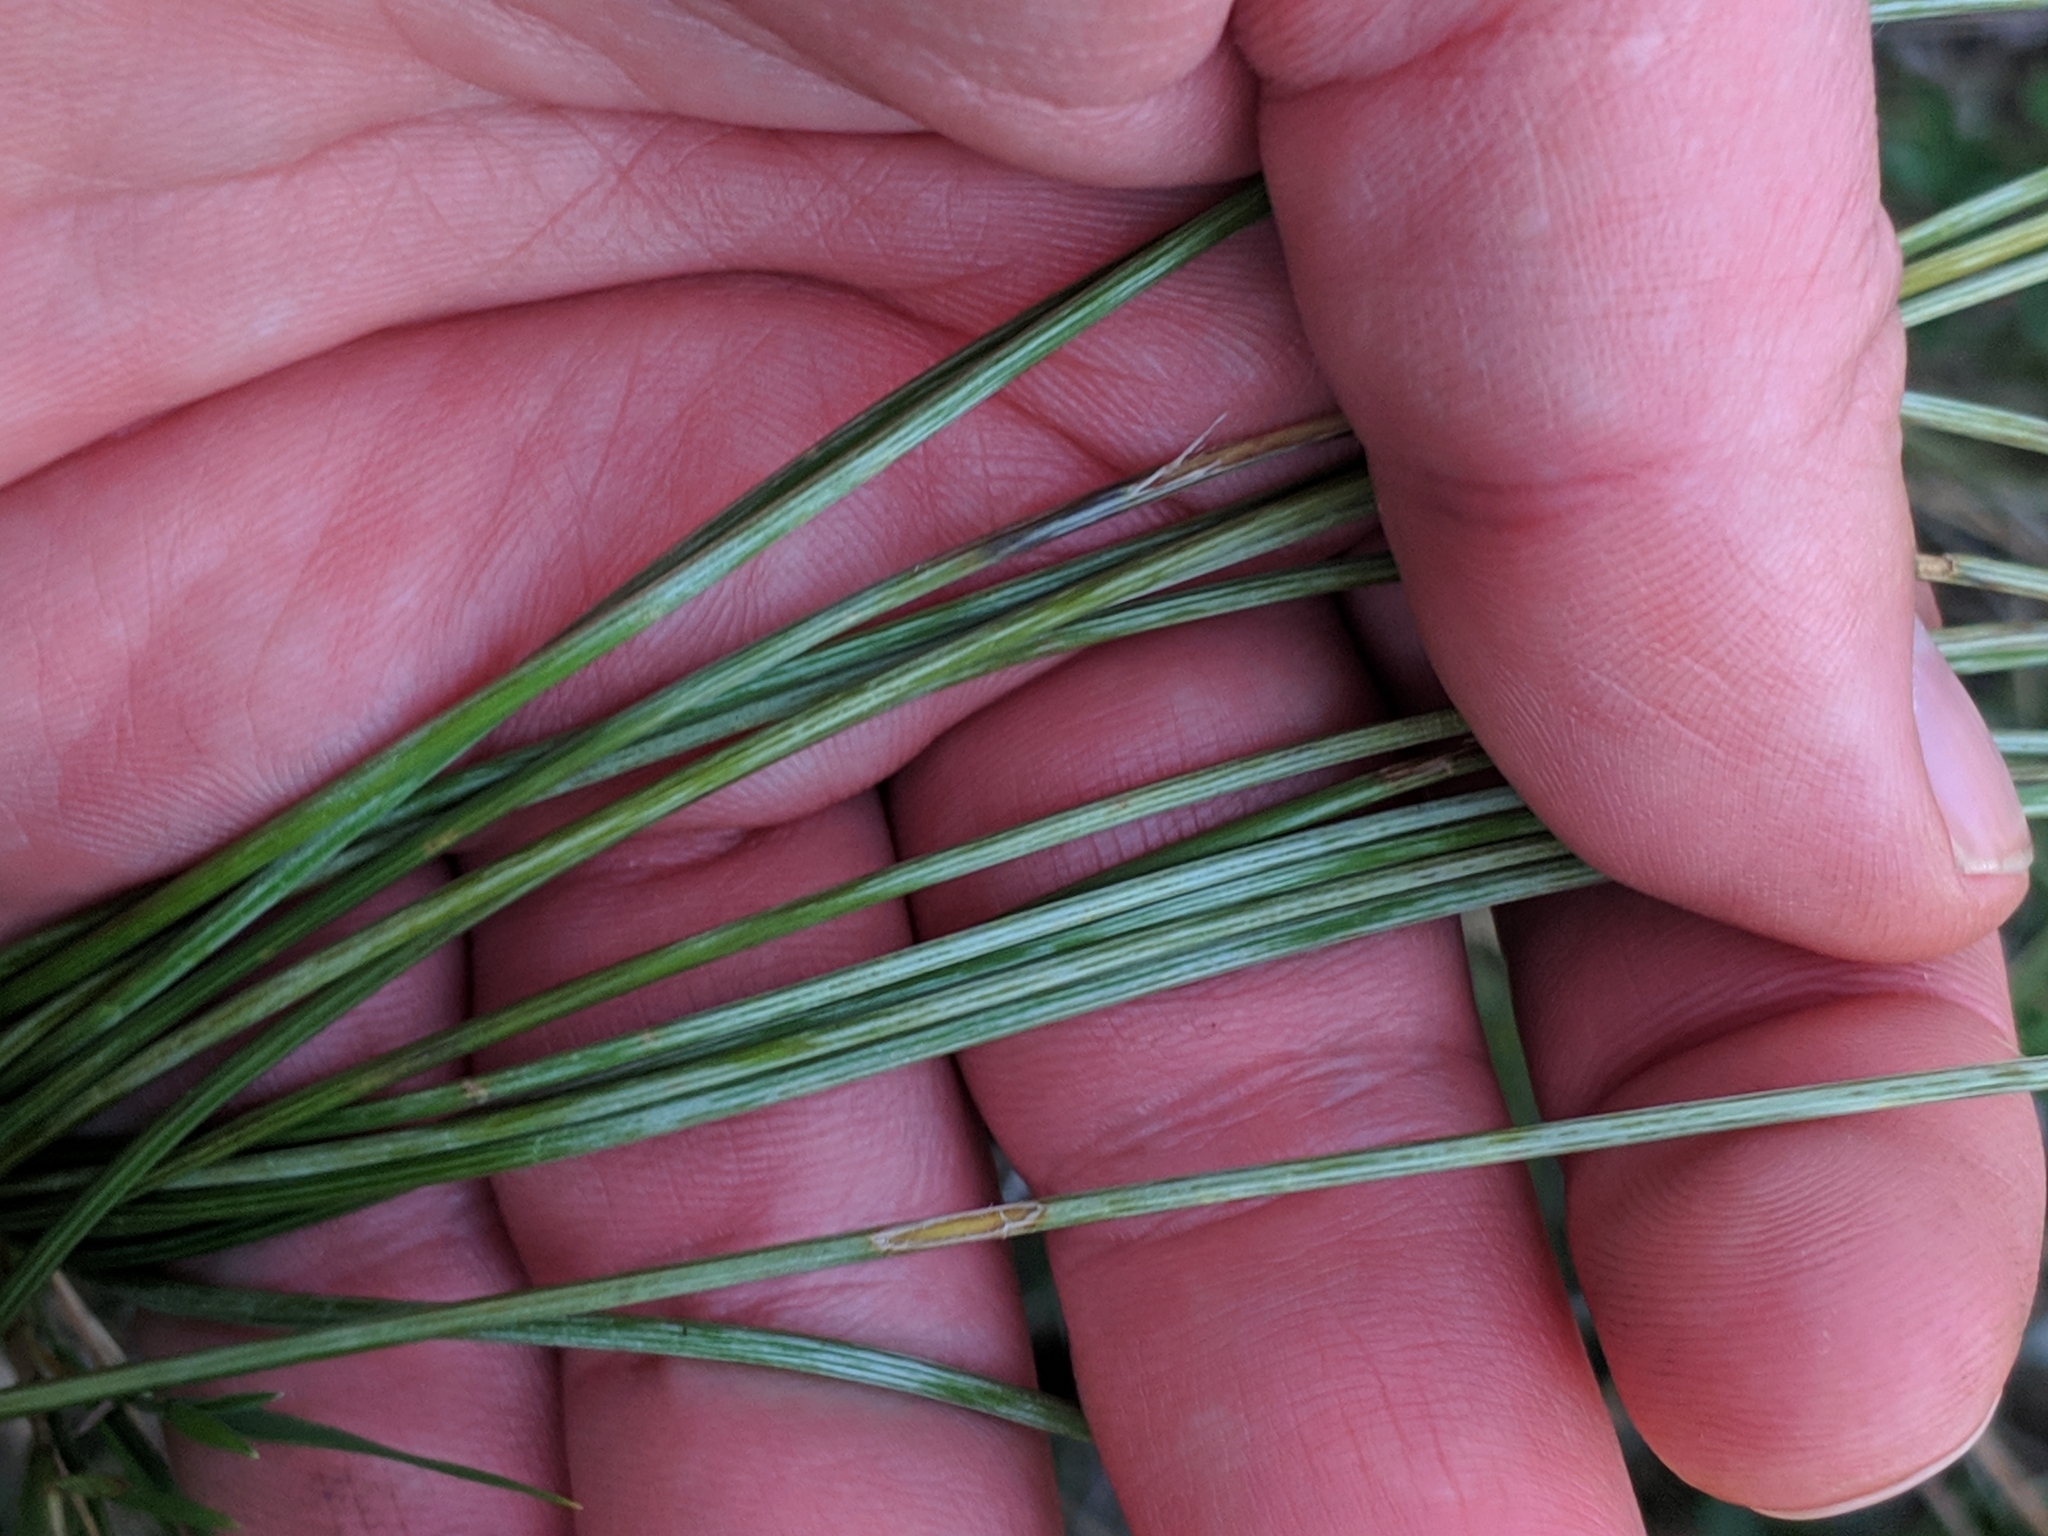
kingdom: Plantae
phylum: Tracheophyta
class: Liliopsida
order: Asparagales
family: Asparagaceae
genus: Aphyllanthes
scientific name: Aphyllanthes monspeliensis
